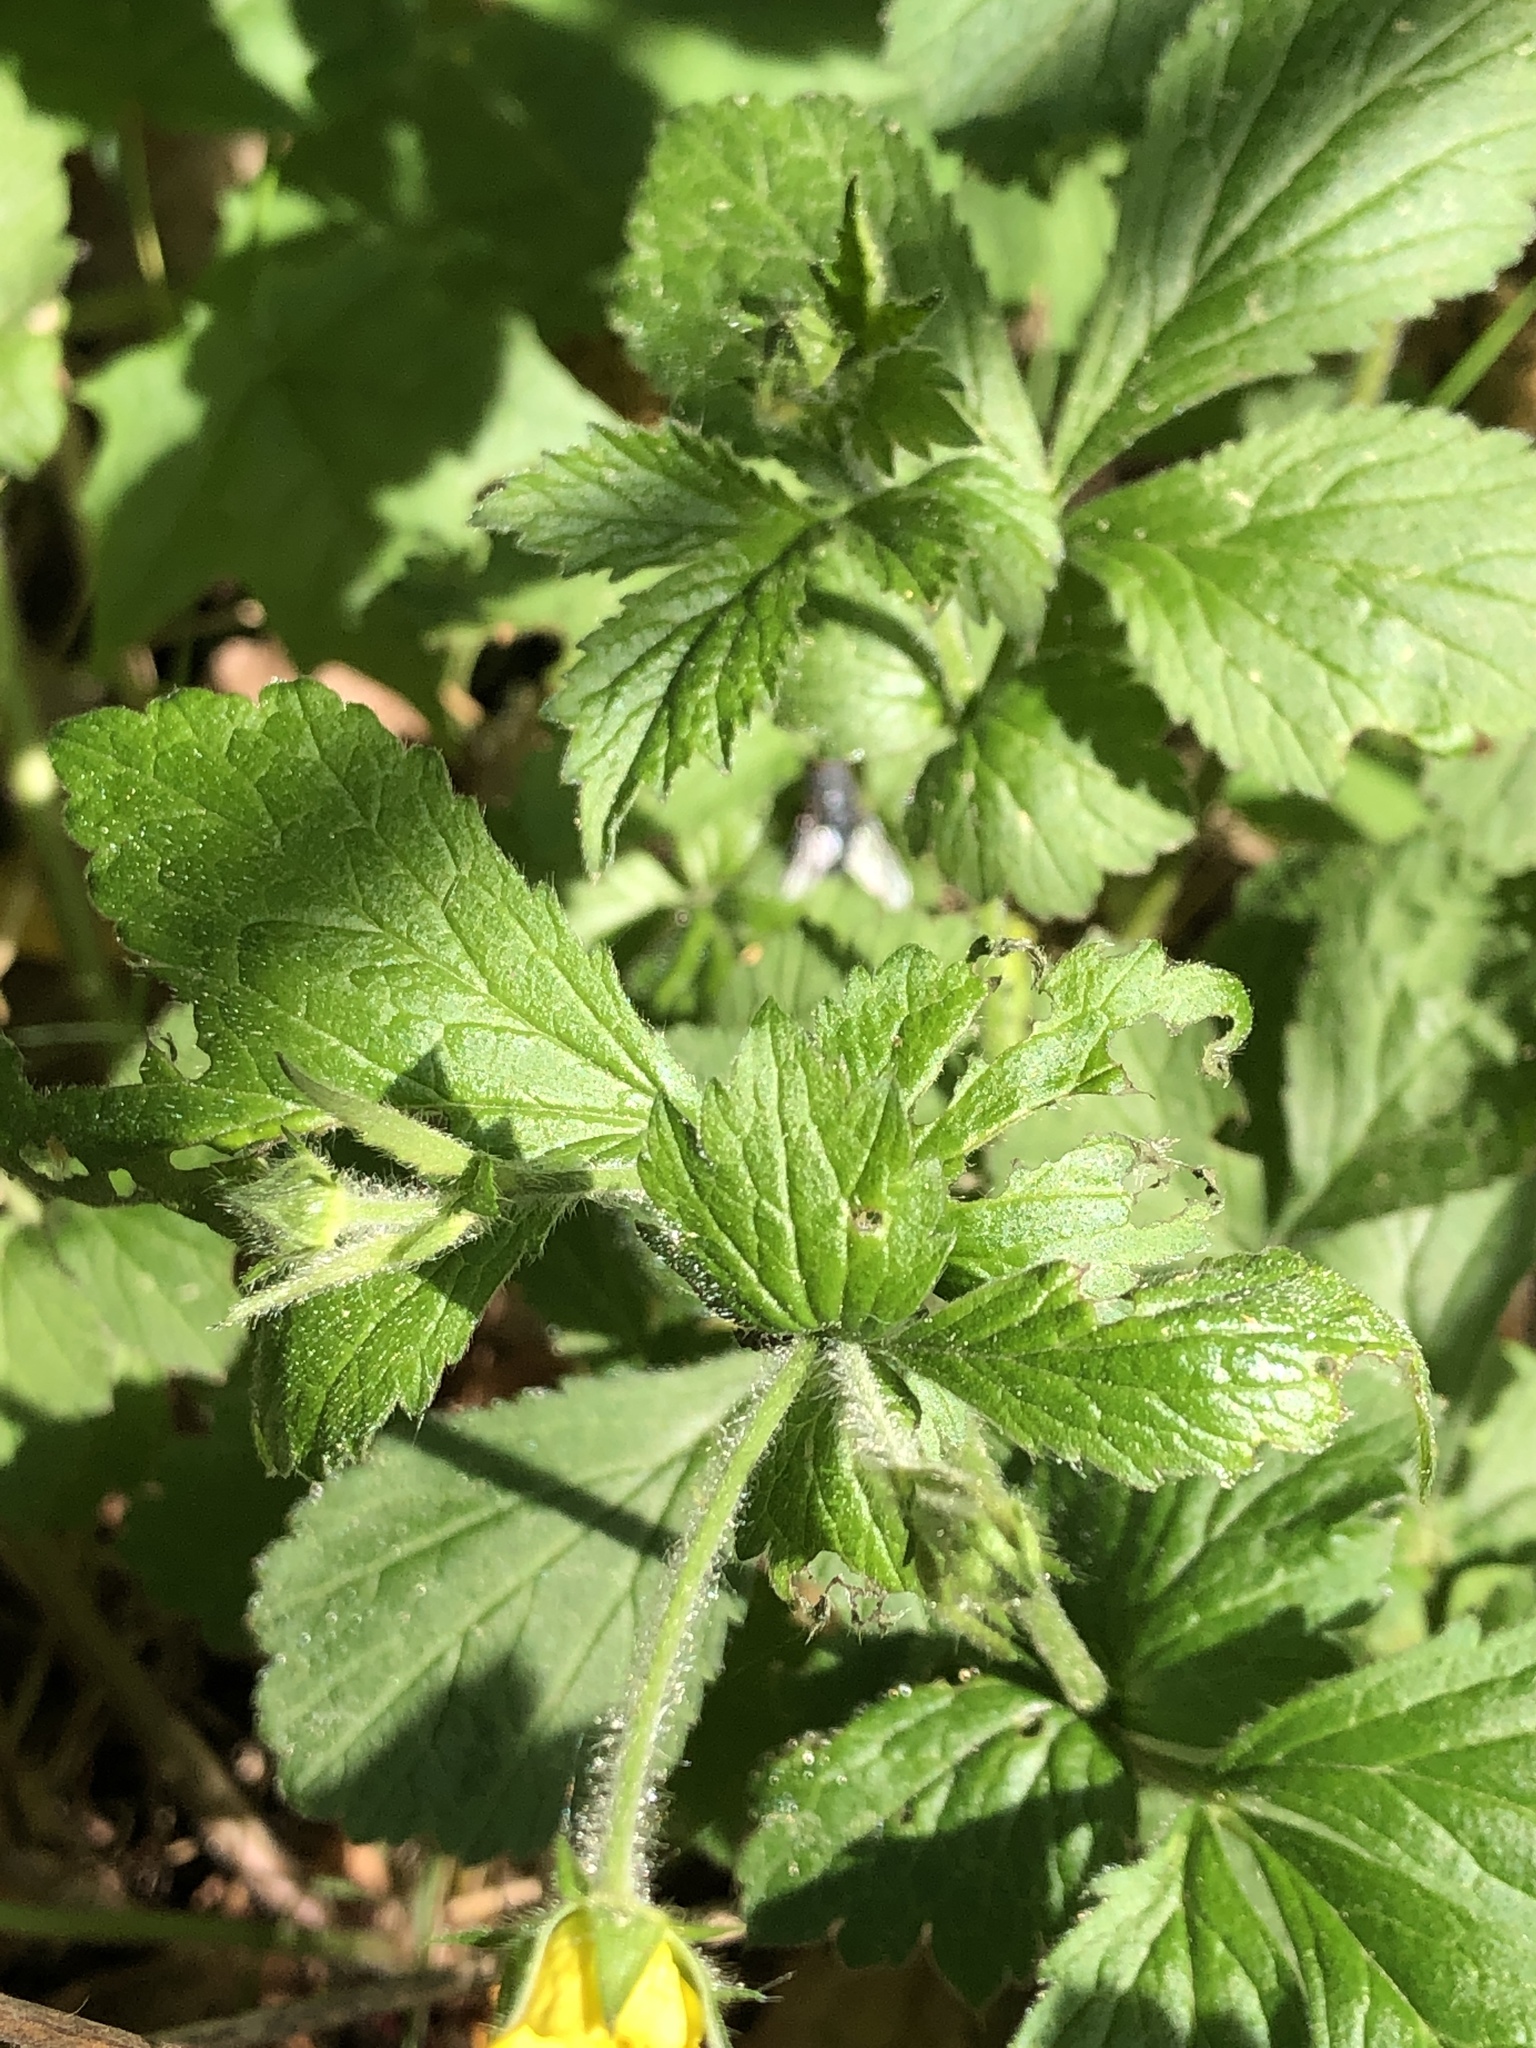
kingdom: Plantae
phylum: Tracheophyta
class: Magnoliopsida
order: Rosales
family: Rosaceae
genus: Geum
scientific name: Geum urbanum
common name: Wood avens
